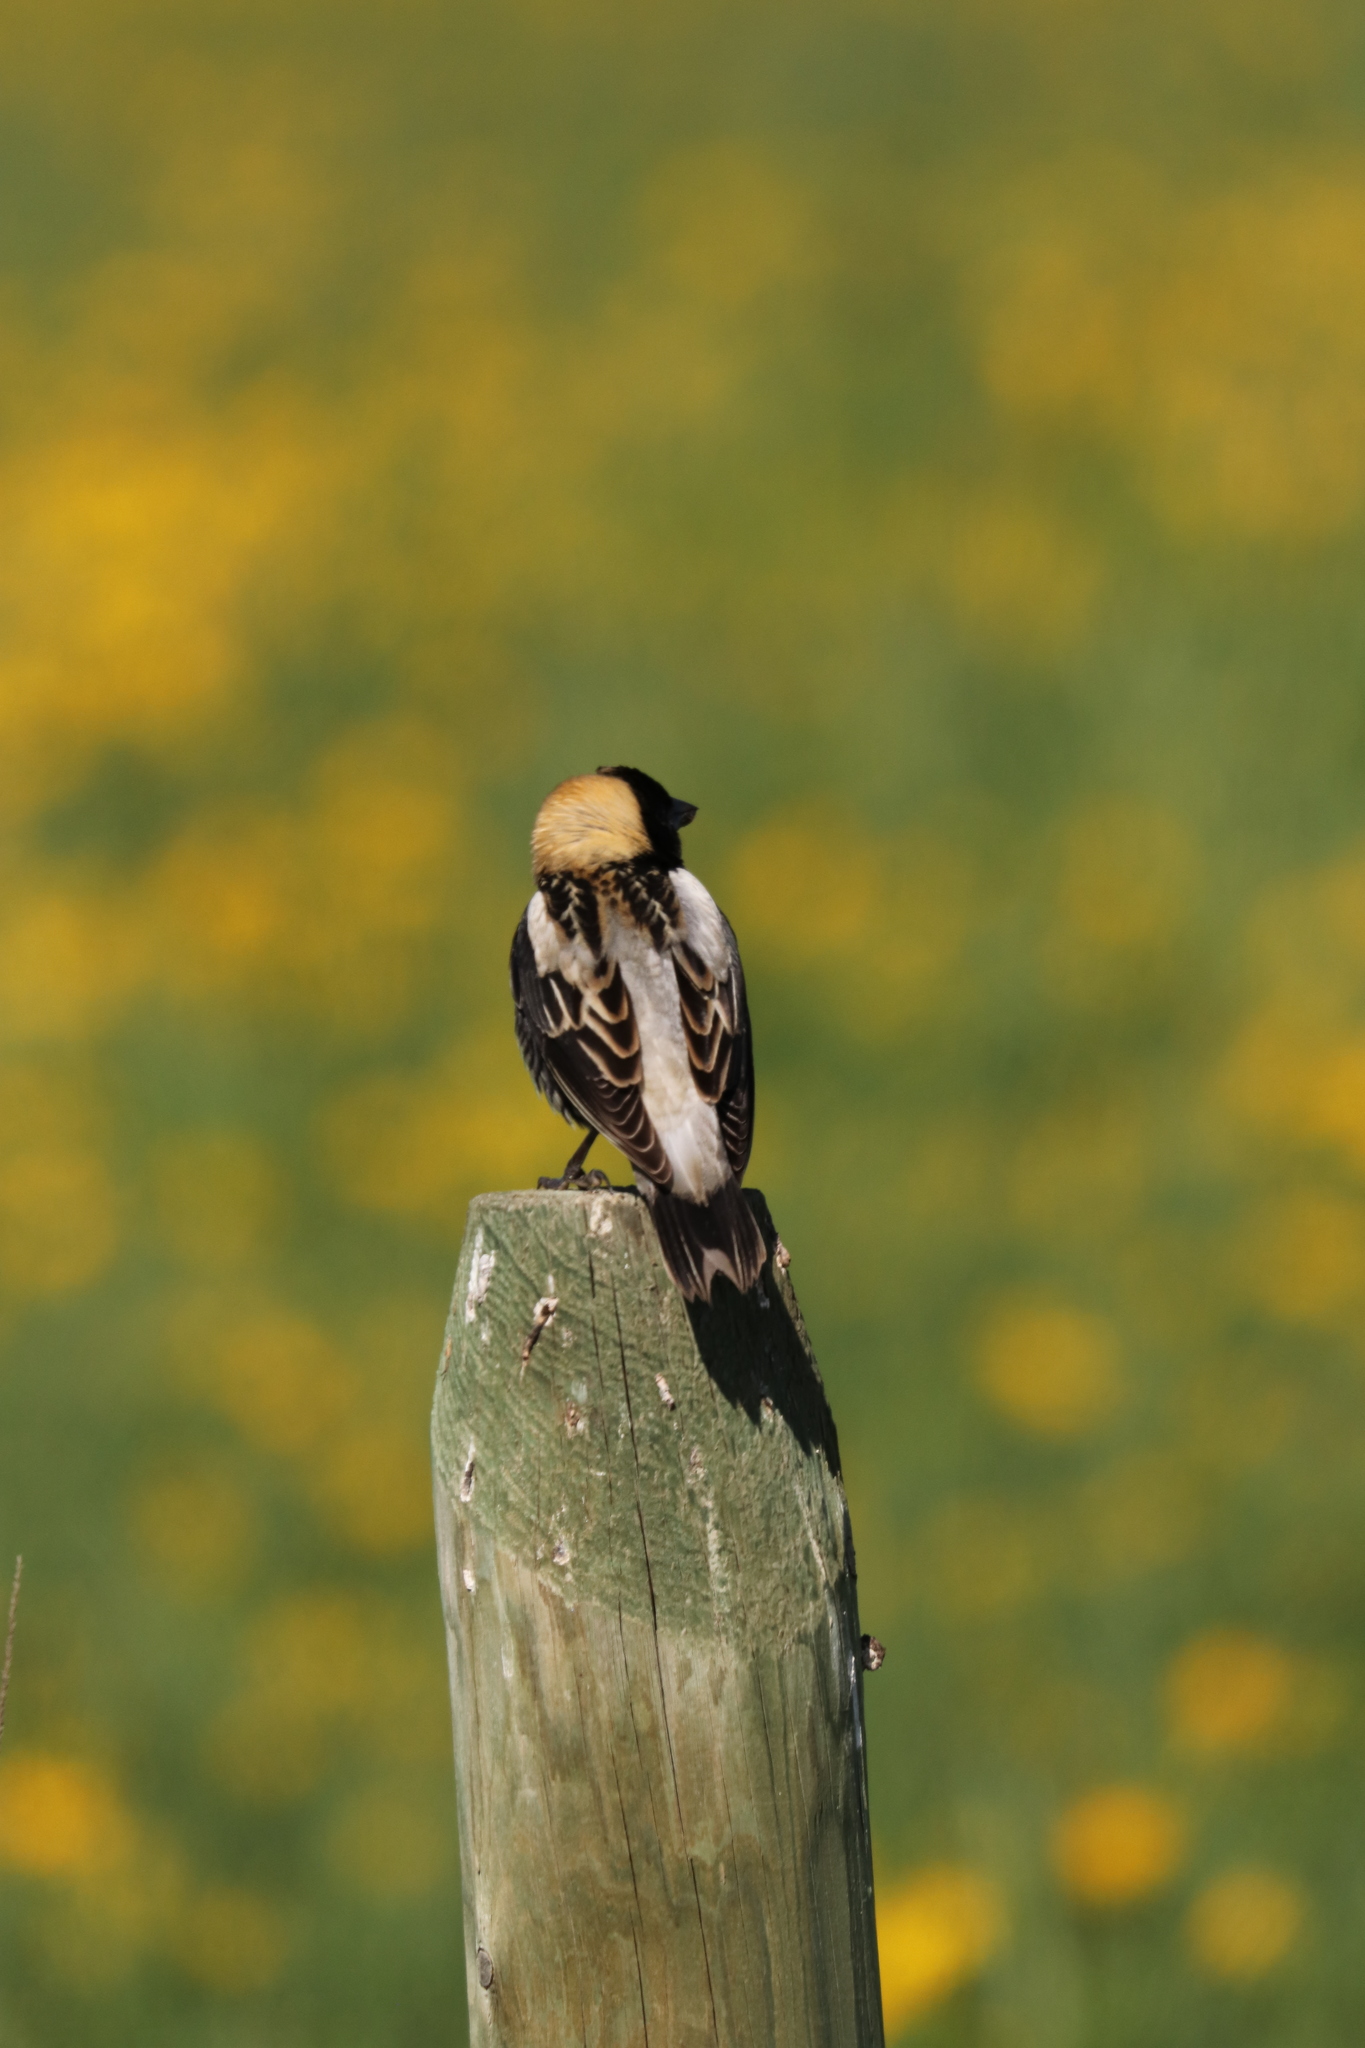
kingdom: Animalia
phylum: Chordata
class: Aves
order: Passeriformes
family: Icteridae
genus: Dolichonyx
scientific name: Dolichonyx oryzivorus
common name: Bobolink
